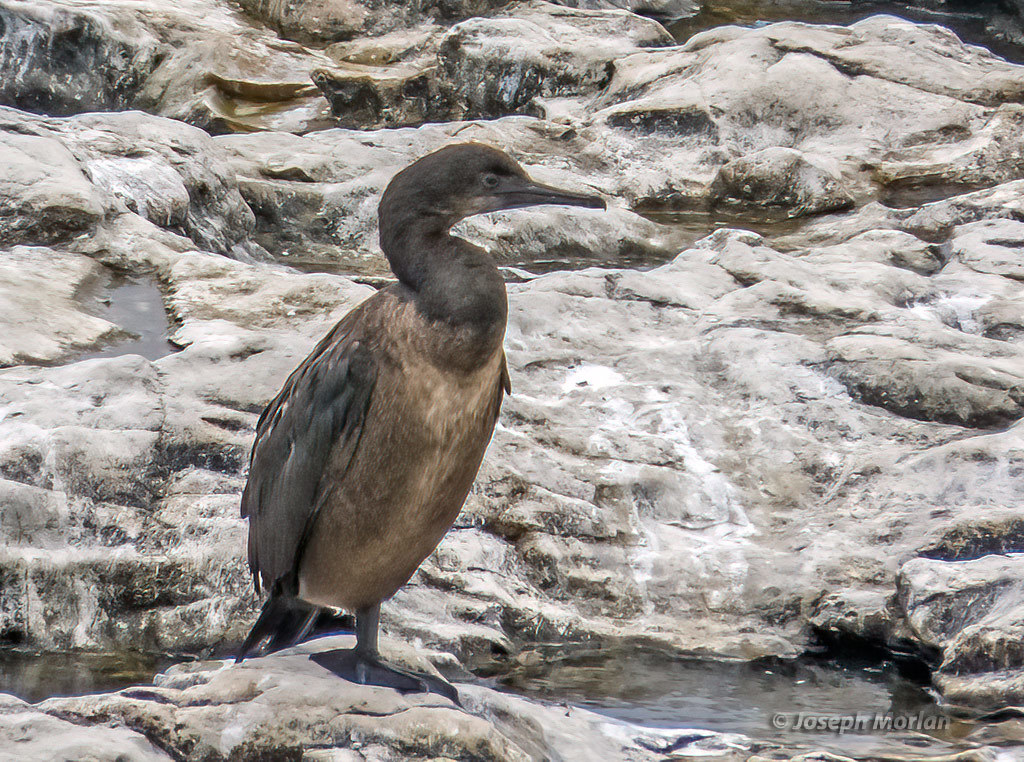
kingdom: Animalia
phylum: Chordata
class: Aves
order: Suliformes
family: Phalacrocoracidae
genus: Urile
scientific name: Urile penicillatus
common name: Brandt's cormorant
